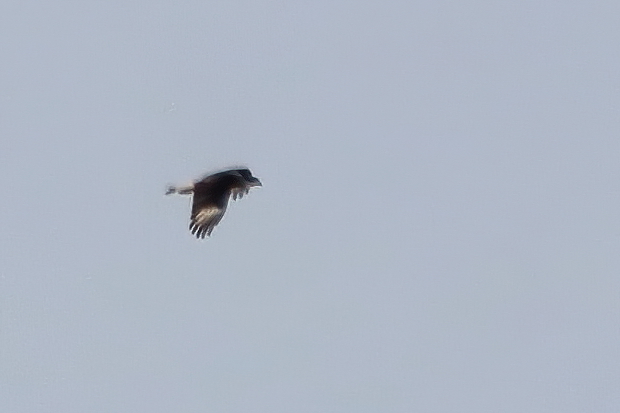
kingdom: Animalia
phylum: Chordata
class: Aves
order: Falconiformes
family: Falconidae
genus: Caracara
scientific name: Caracara plancus
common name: Southern caracara
